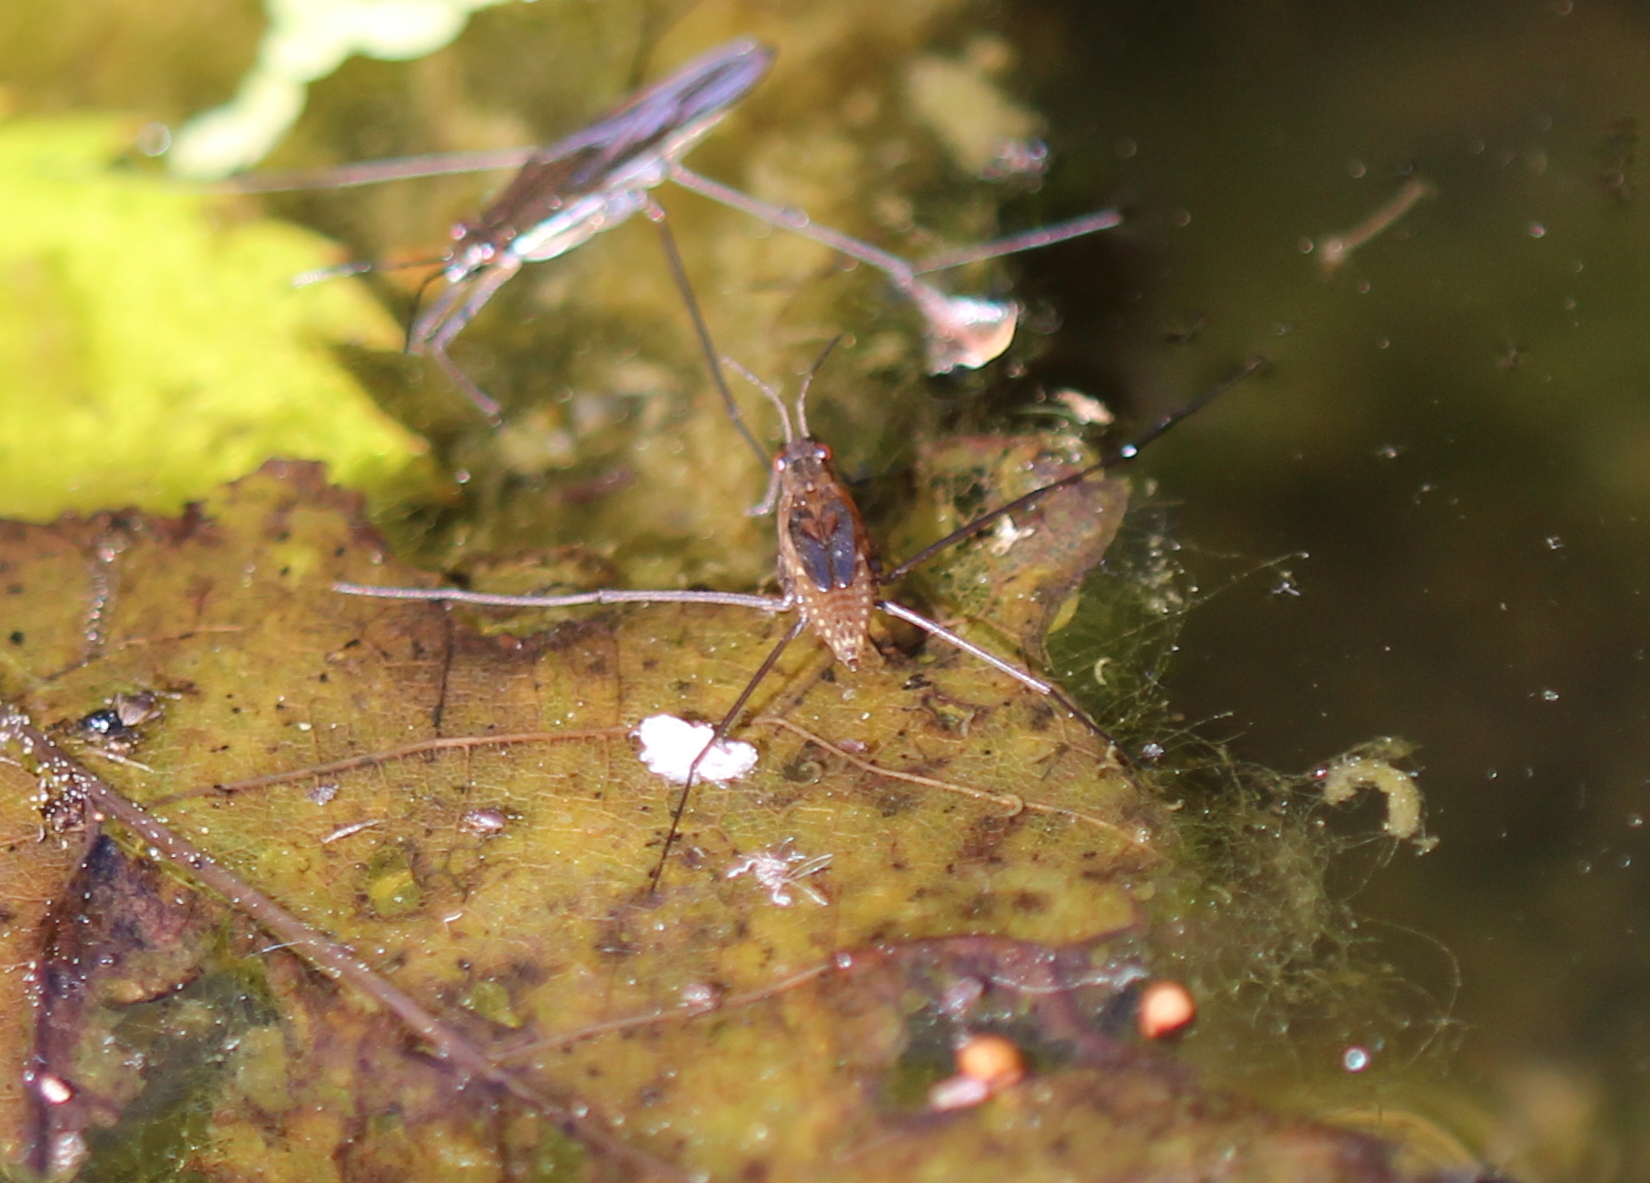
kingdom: Animalia
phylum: Arthropoda
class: Insecta
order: Hemiptera
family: Gerridae
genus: Gerris
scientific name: Gerris
